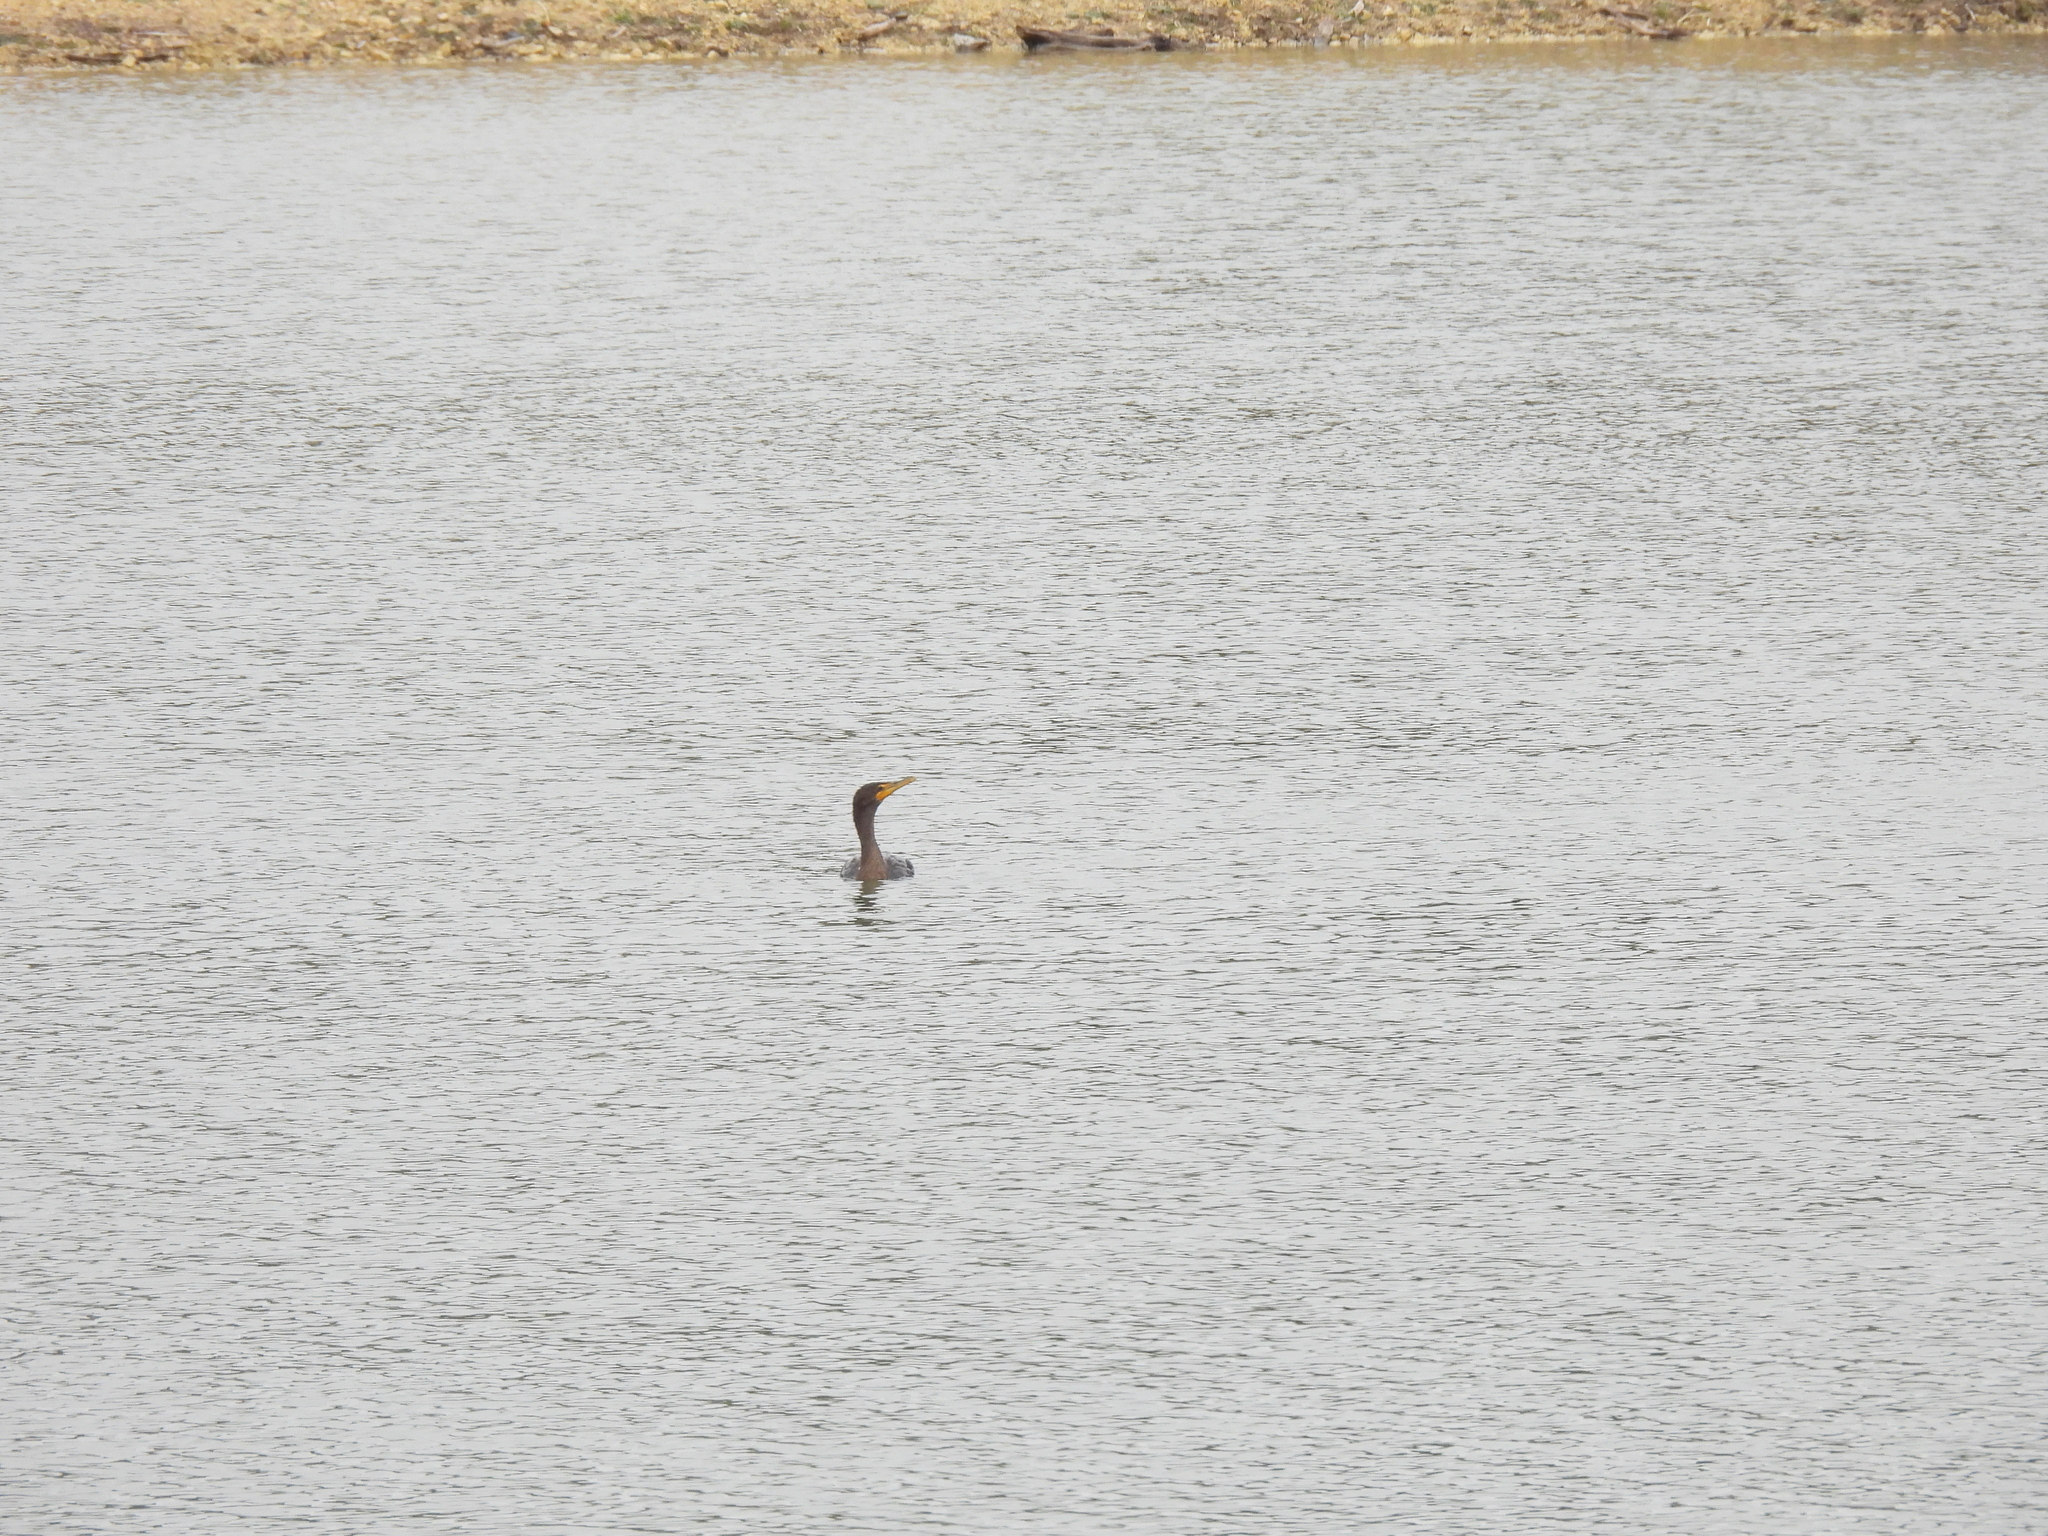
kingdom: Animalia
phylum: Chordata
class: Aves
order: Suliformes
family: Phalacrocoracidae
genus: Phalacrocorax
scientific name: Phalacrocorax auritus
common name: Double-crested cormorant
